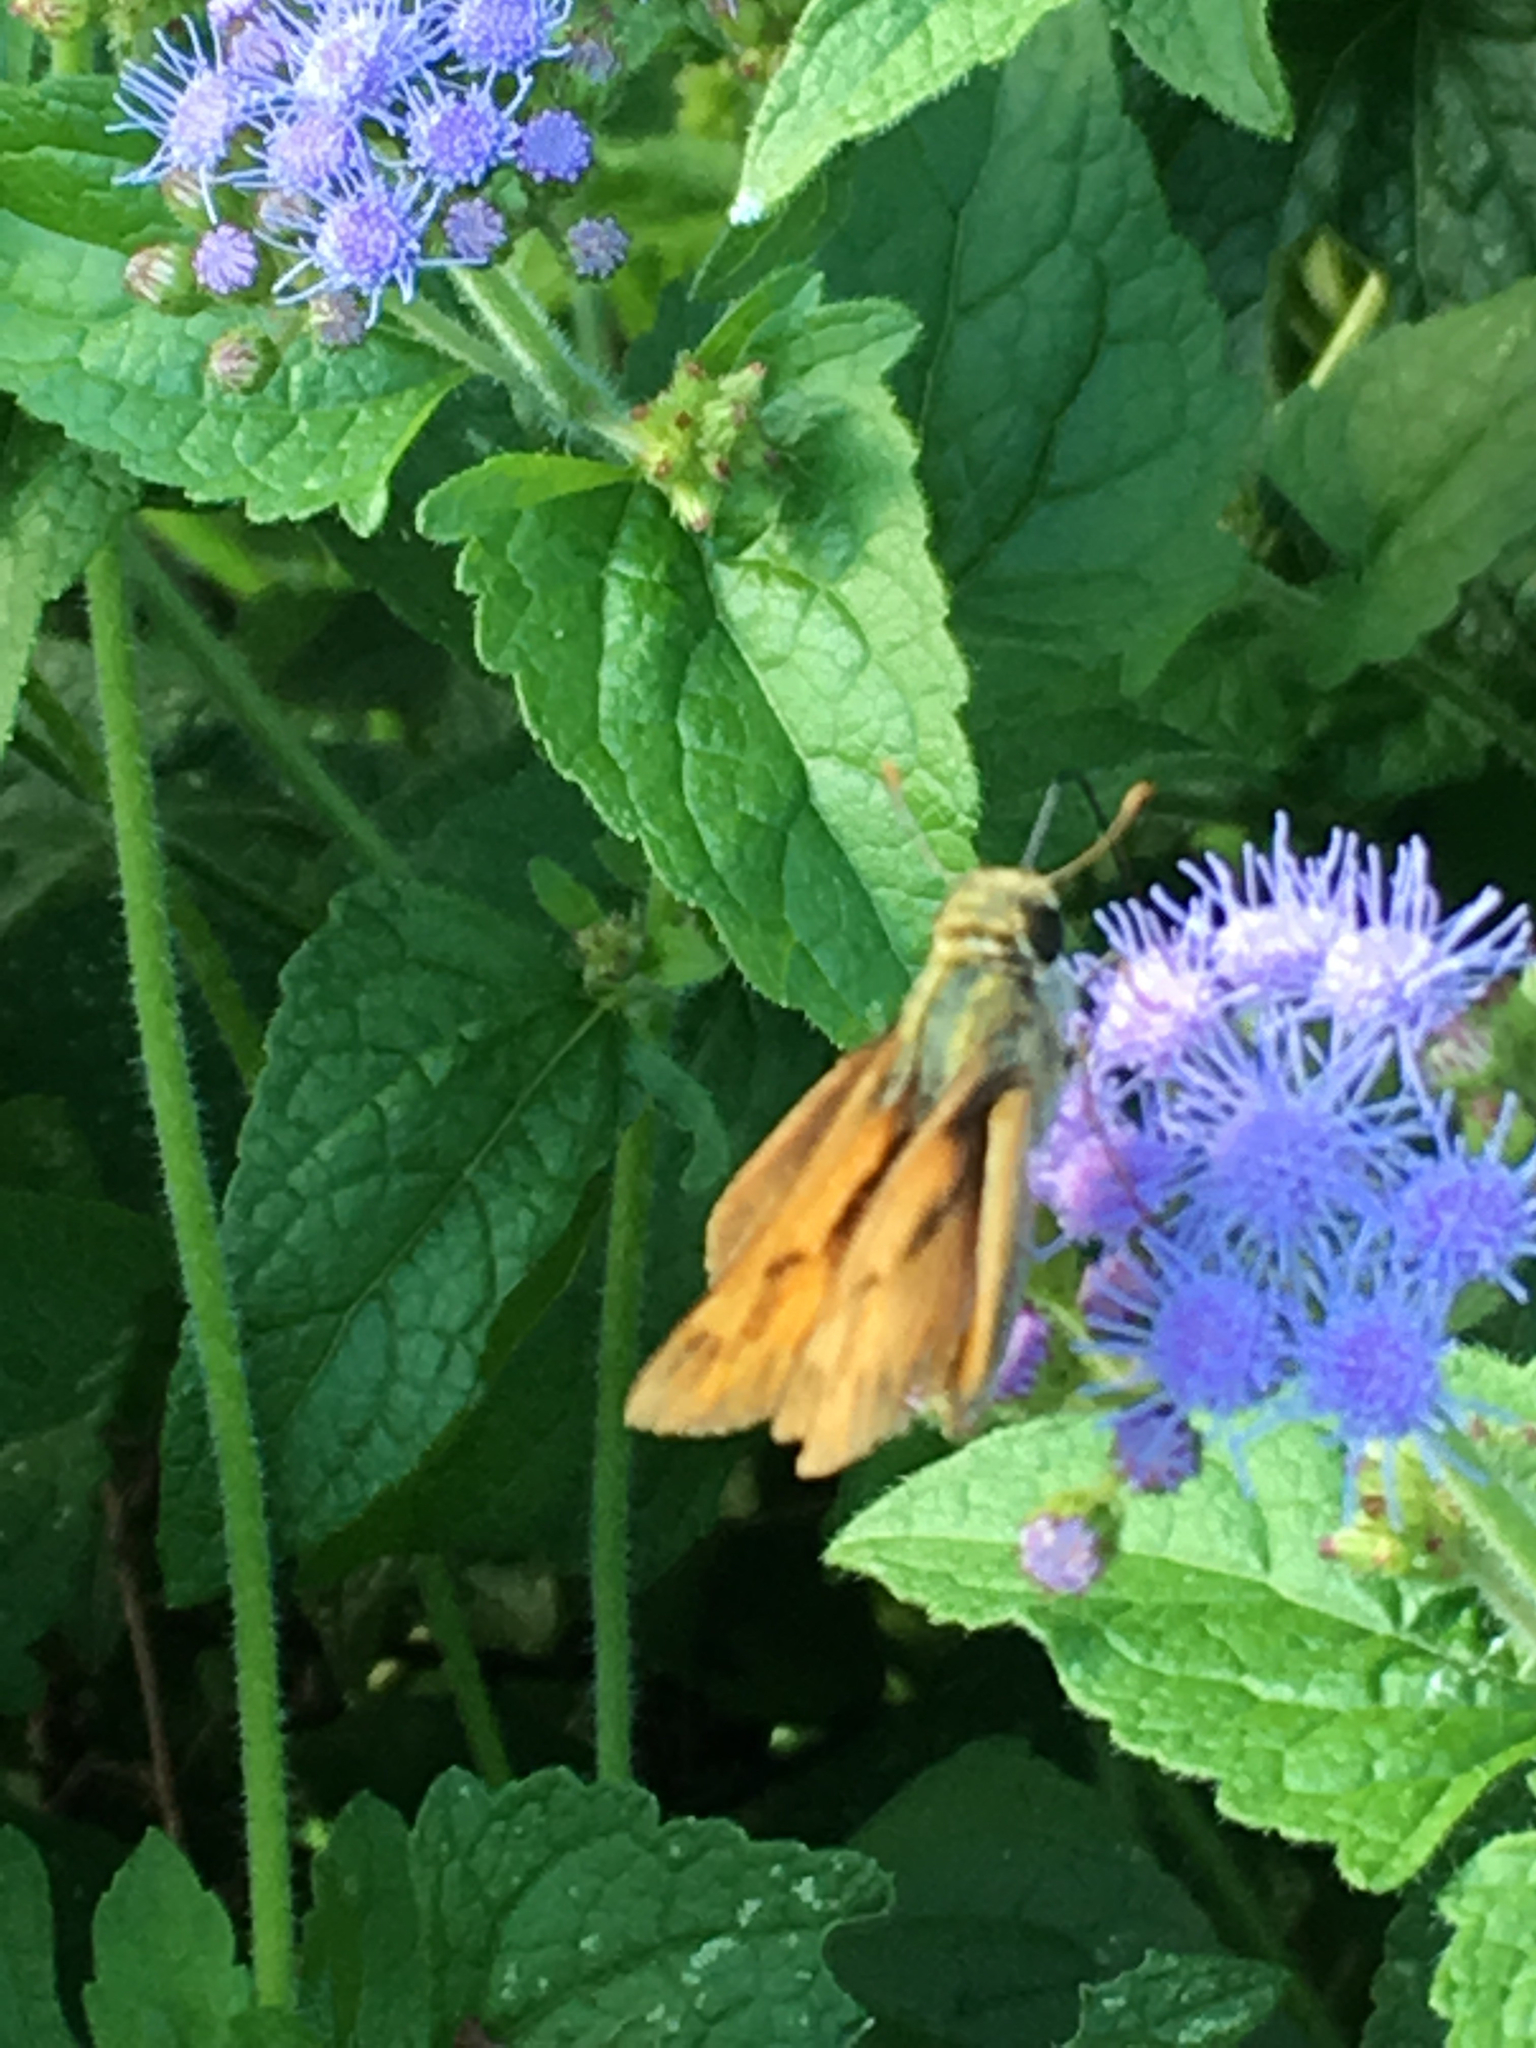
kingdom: Animalia
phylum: Arthropoda
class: Insecta
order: Lepidoptera
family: Hesperiidae
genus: Hylephila
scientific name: Hylephila phyleus
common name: Fiery skipper
